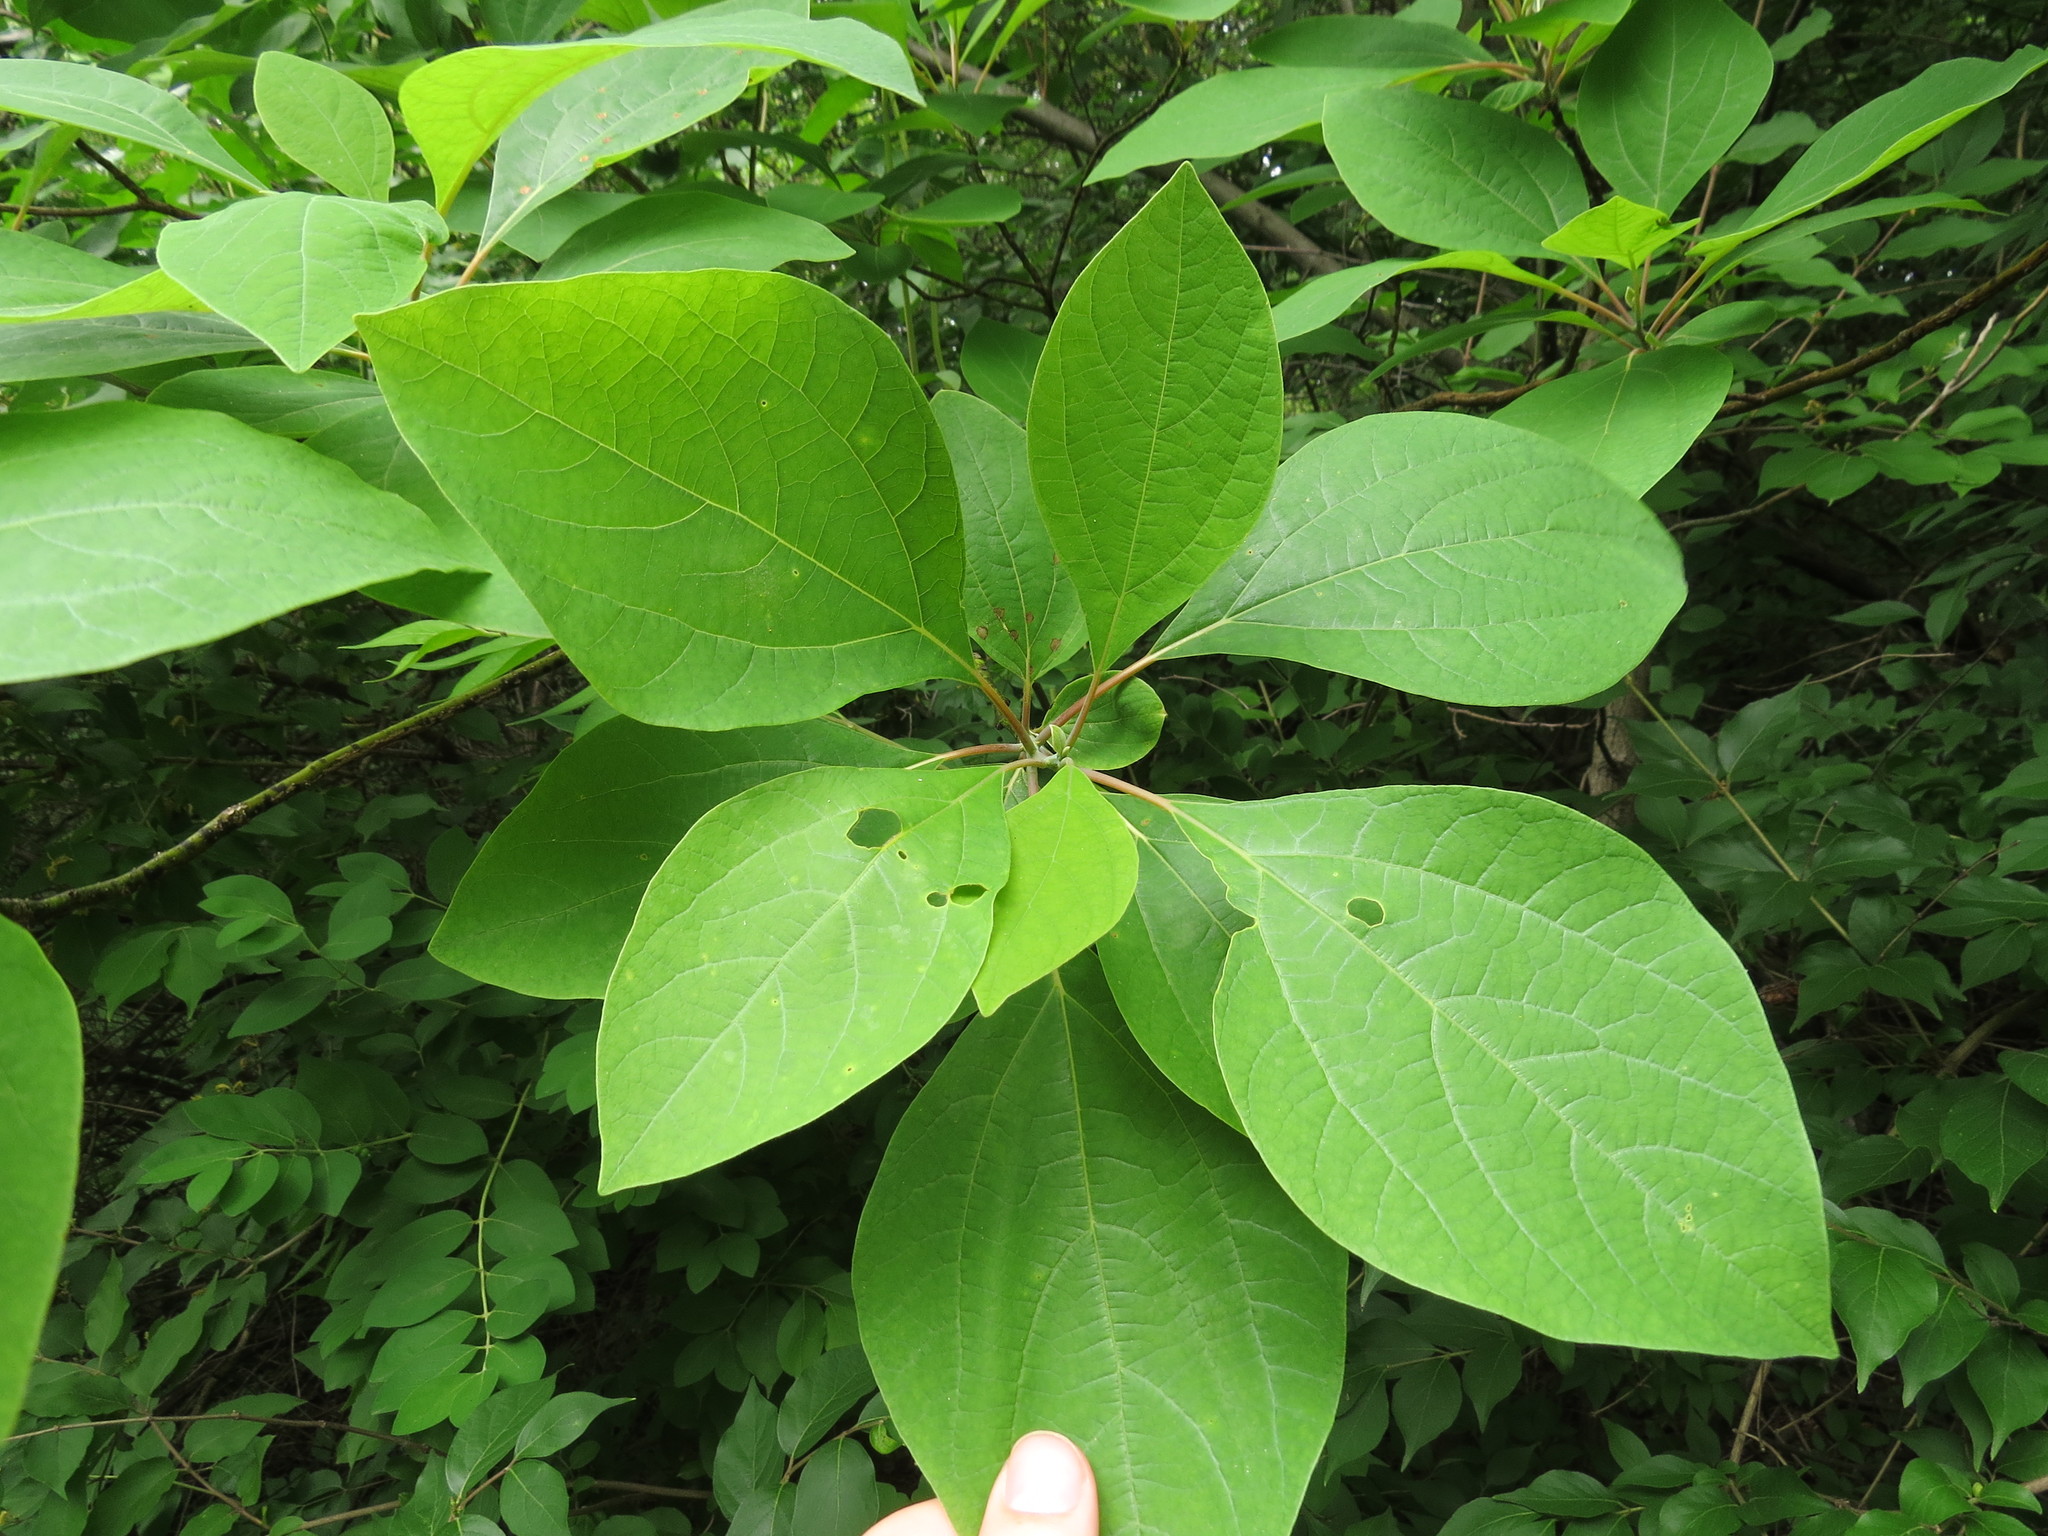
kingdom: Plantae
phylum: Tracheophyta
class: Magnoliopsida
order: Laurales
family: Lauraceae
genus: Sassafras
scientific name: Sassafras albidum
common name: Sassafras
